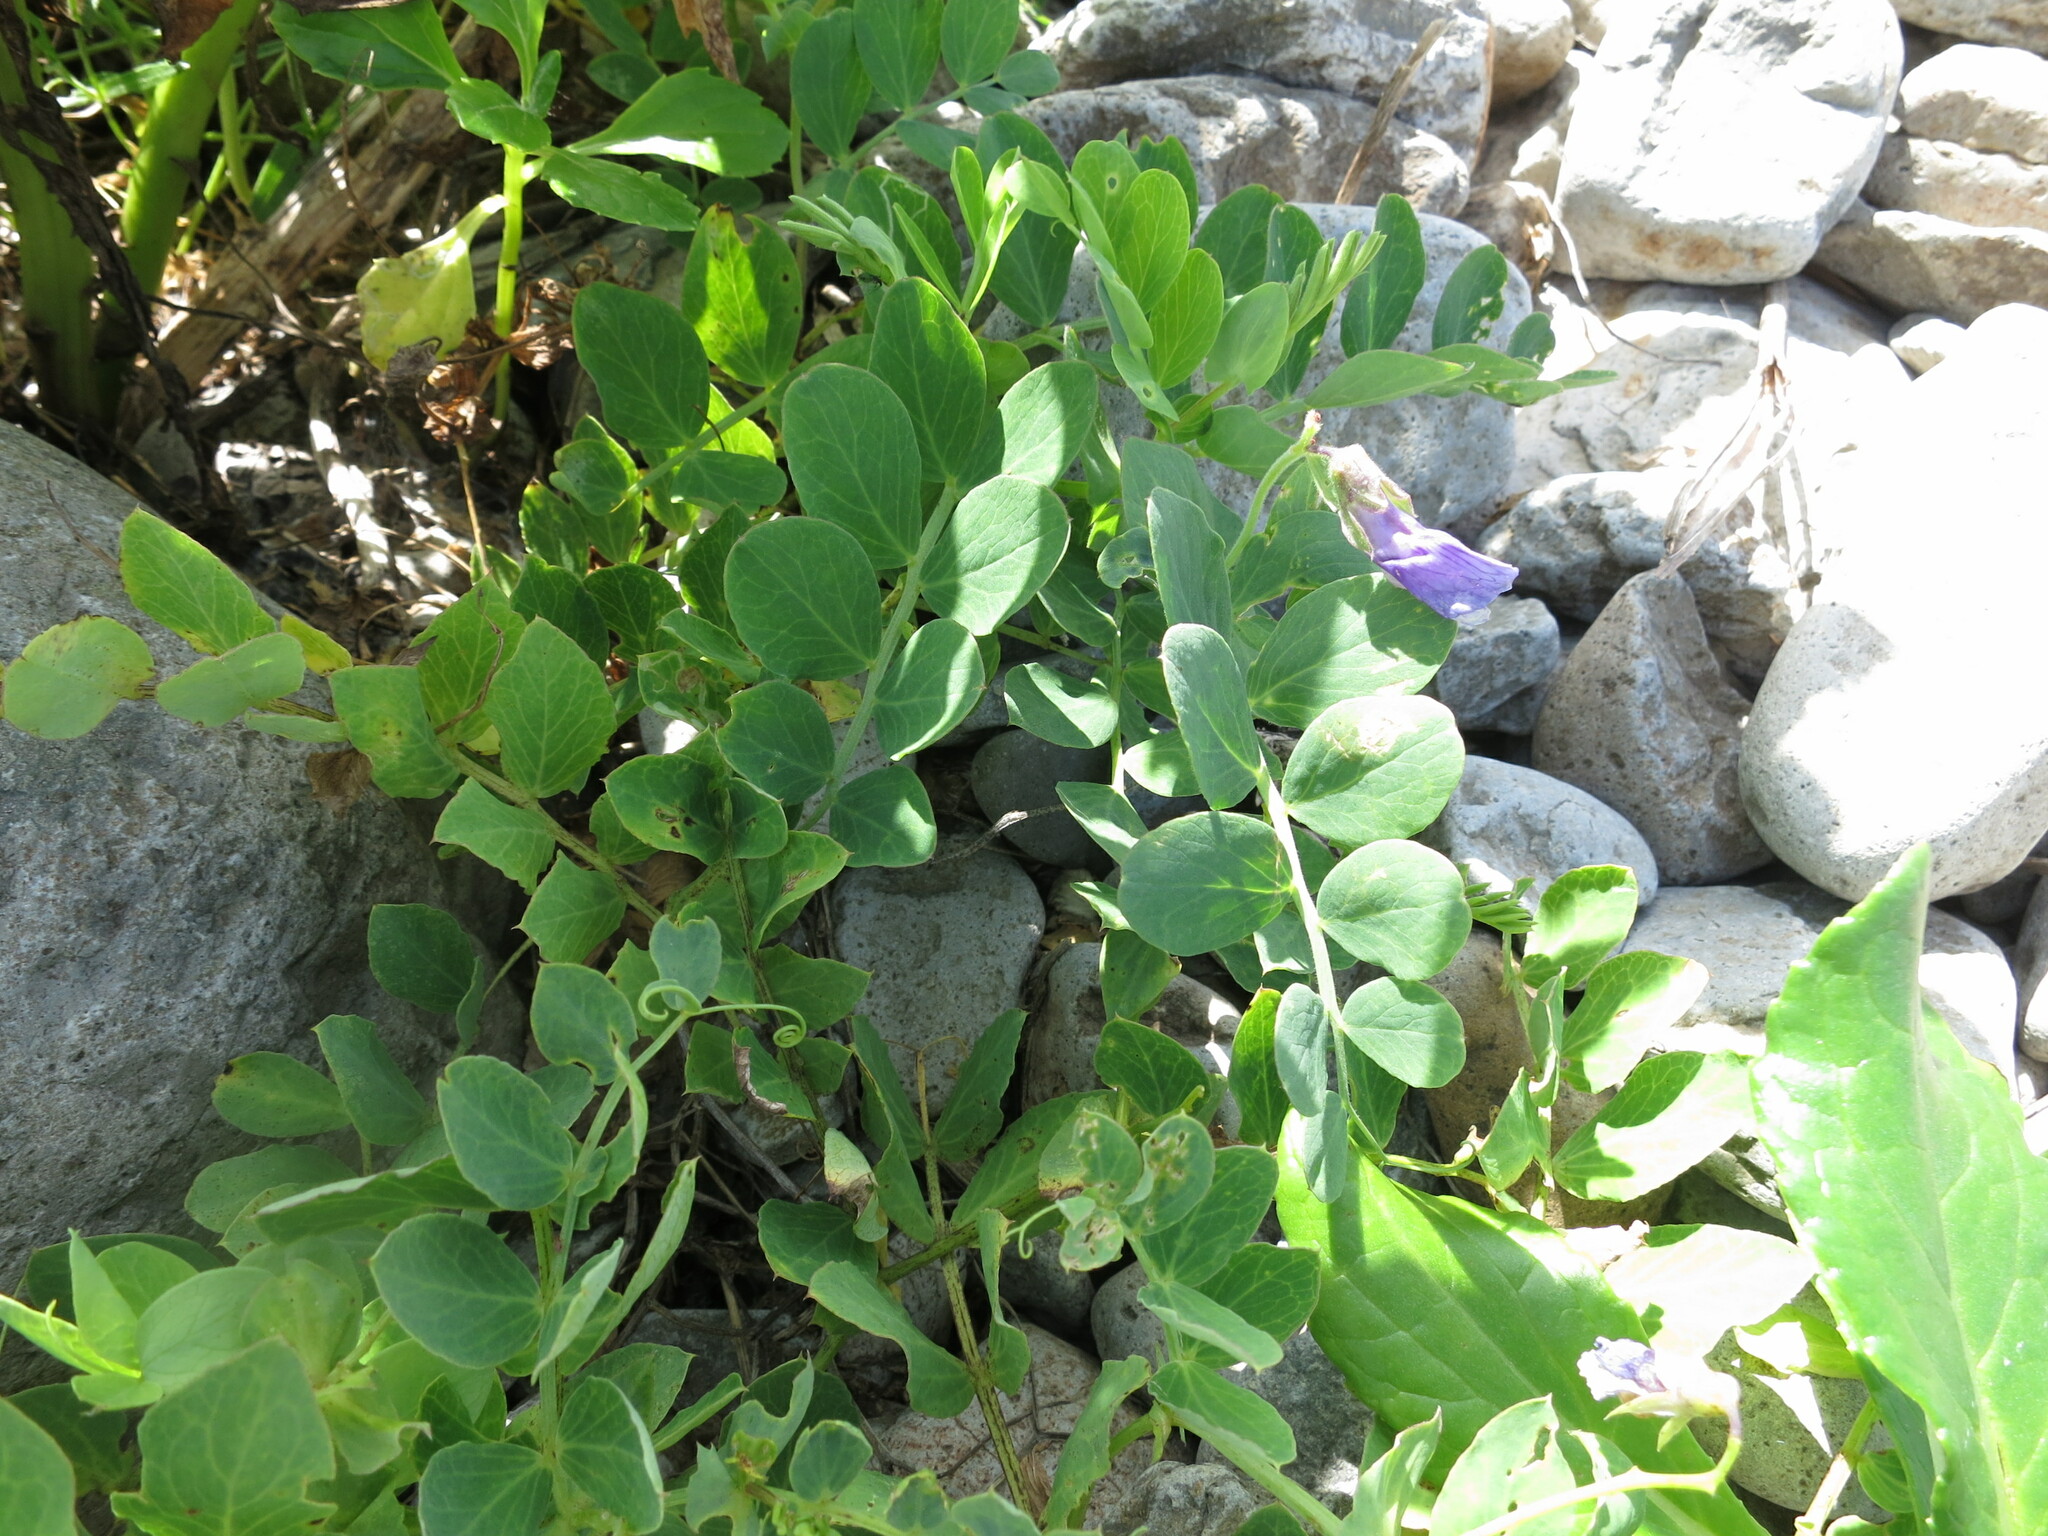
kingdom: Plantae
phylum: Tracheophyta
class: Magnoliopsida
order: Fabales
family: Fabaceae
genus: Lathyrus
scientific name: Lathyrus japonicus
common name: Sea pea
